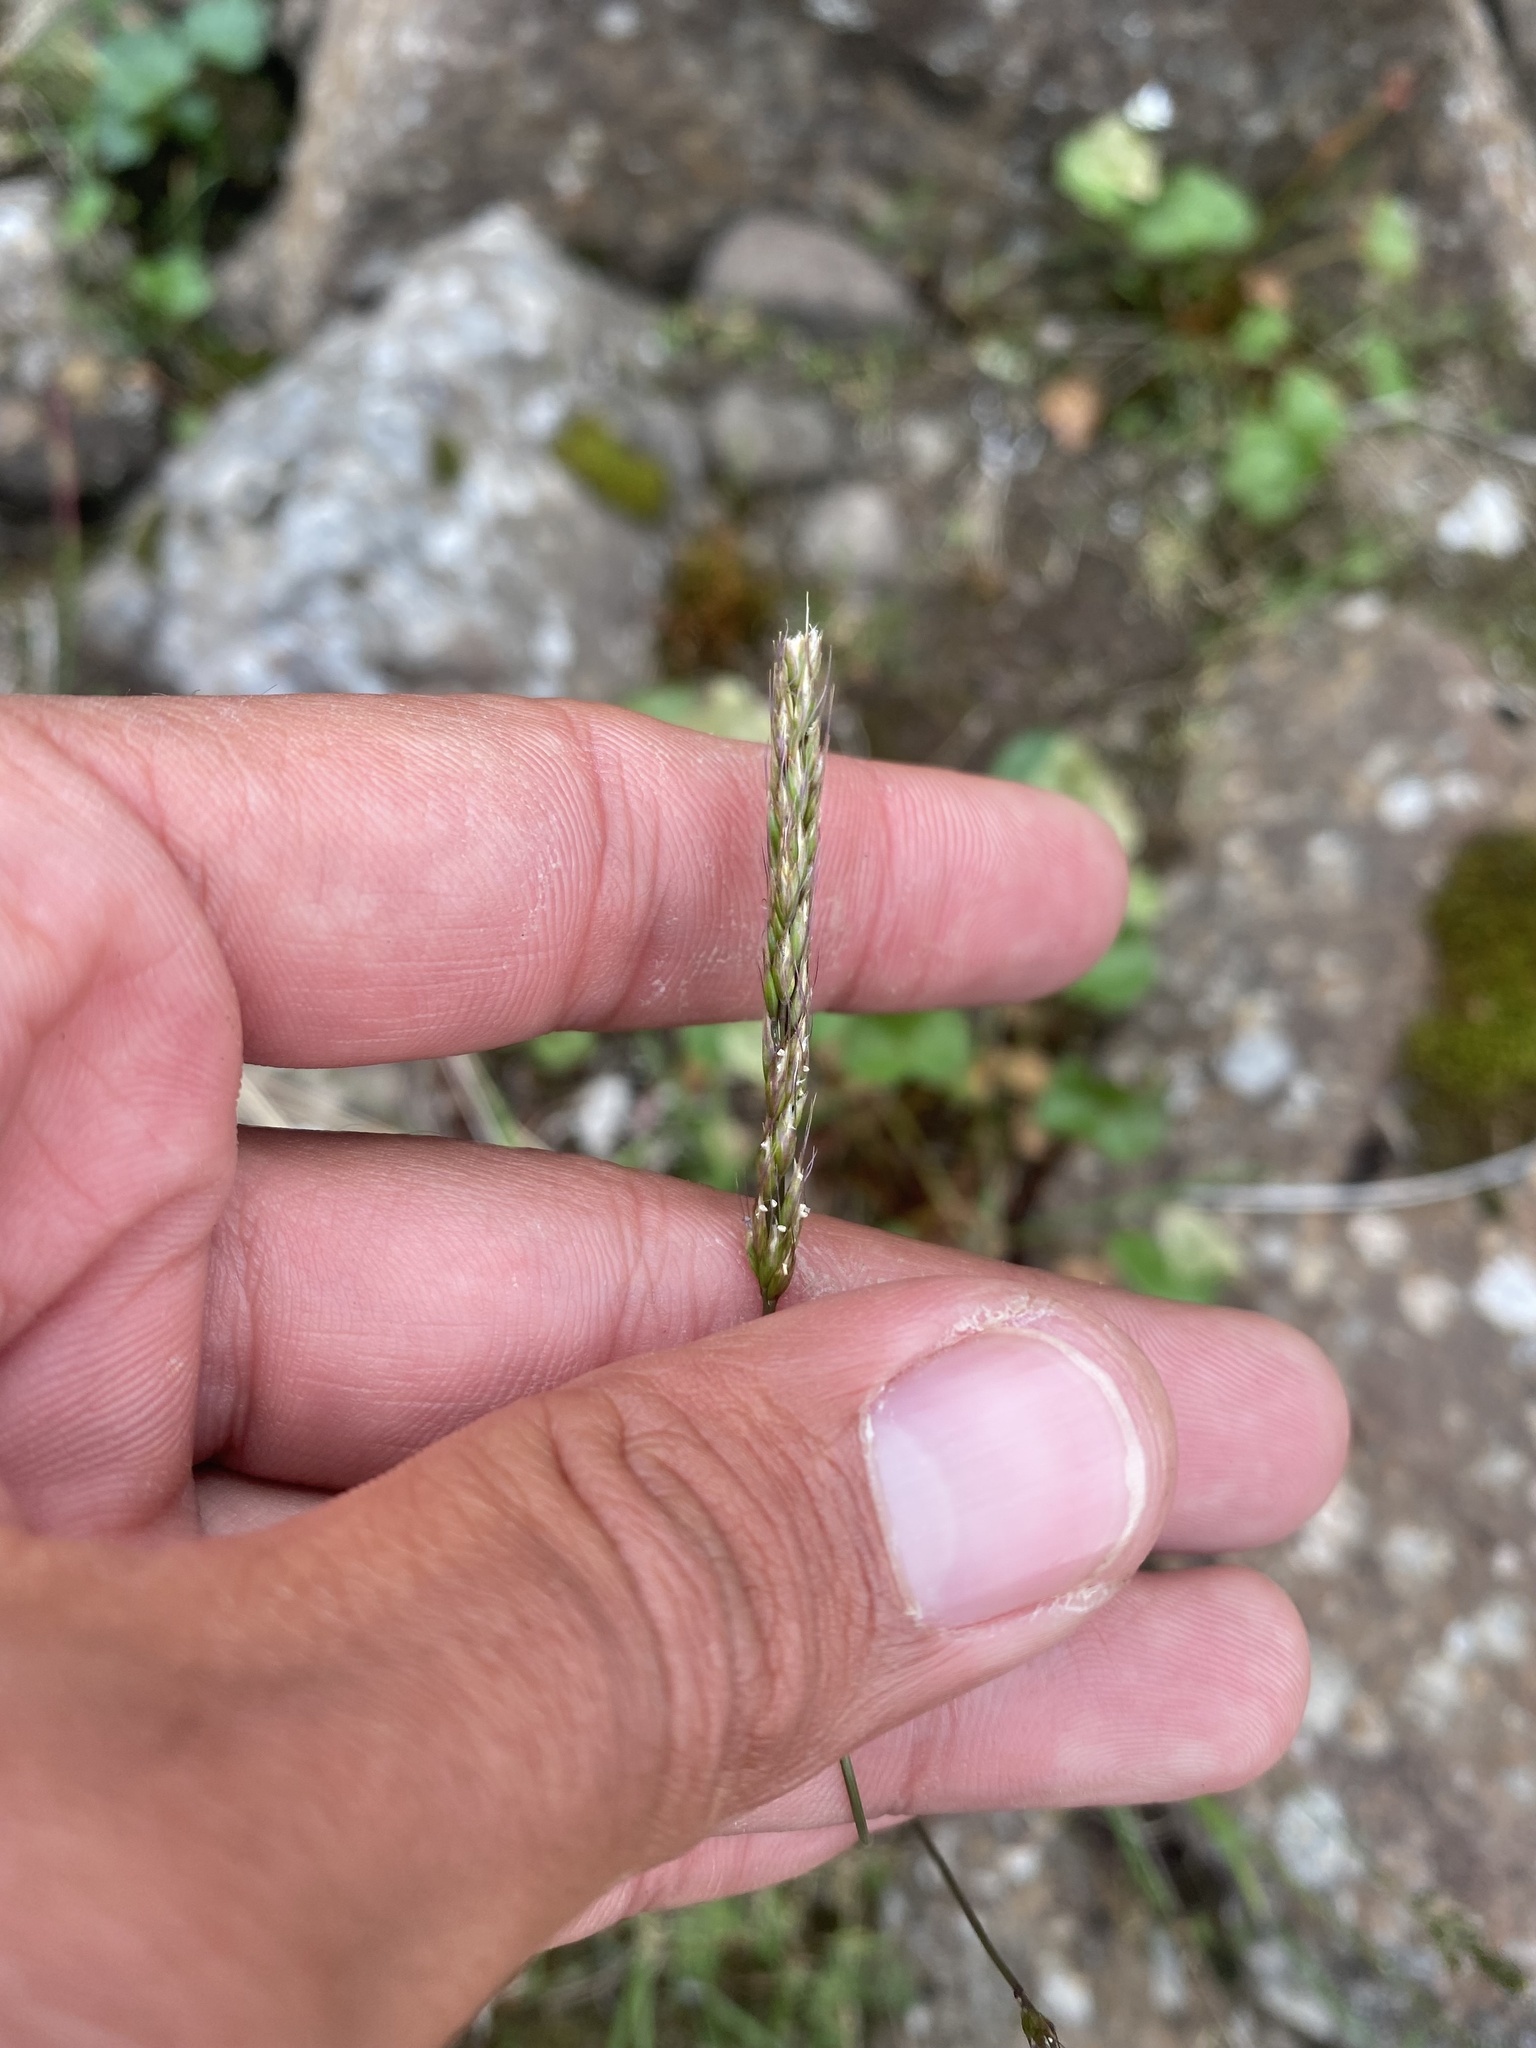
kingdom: Plantae
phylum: Tracheophyta
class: Liliopsida
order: Poales
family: Poaceae
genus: Koeleria
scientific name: Koeleria subalpestris
